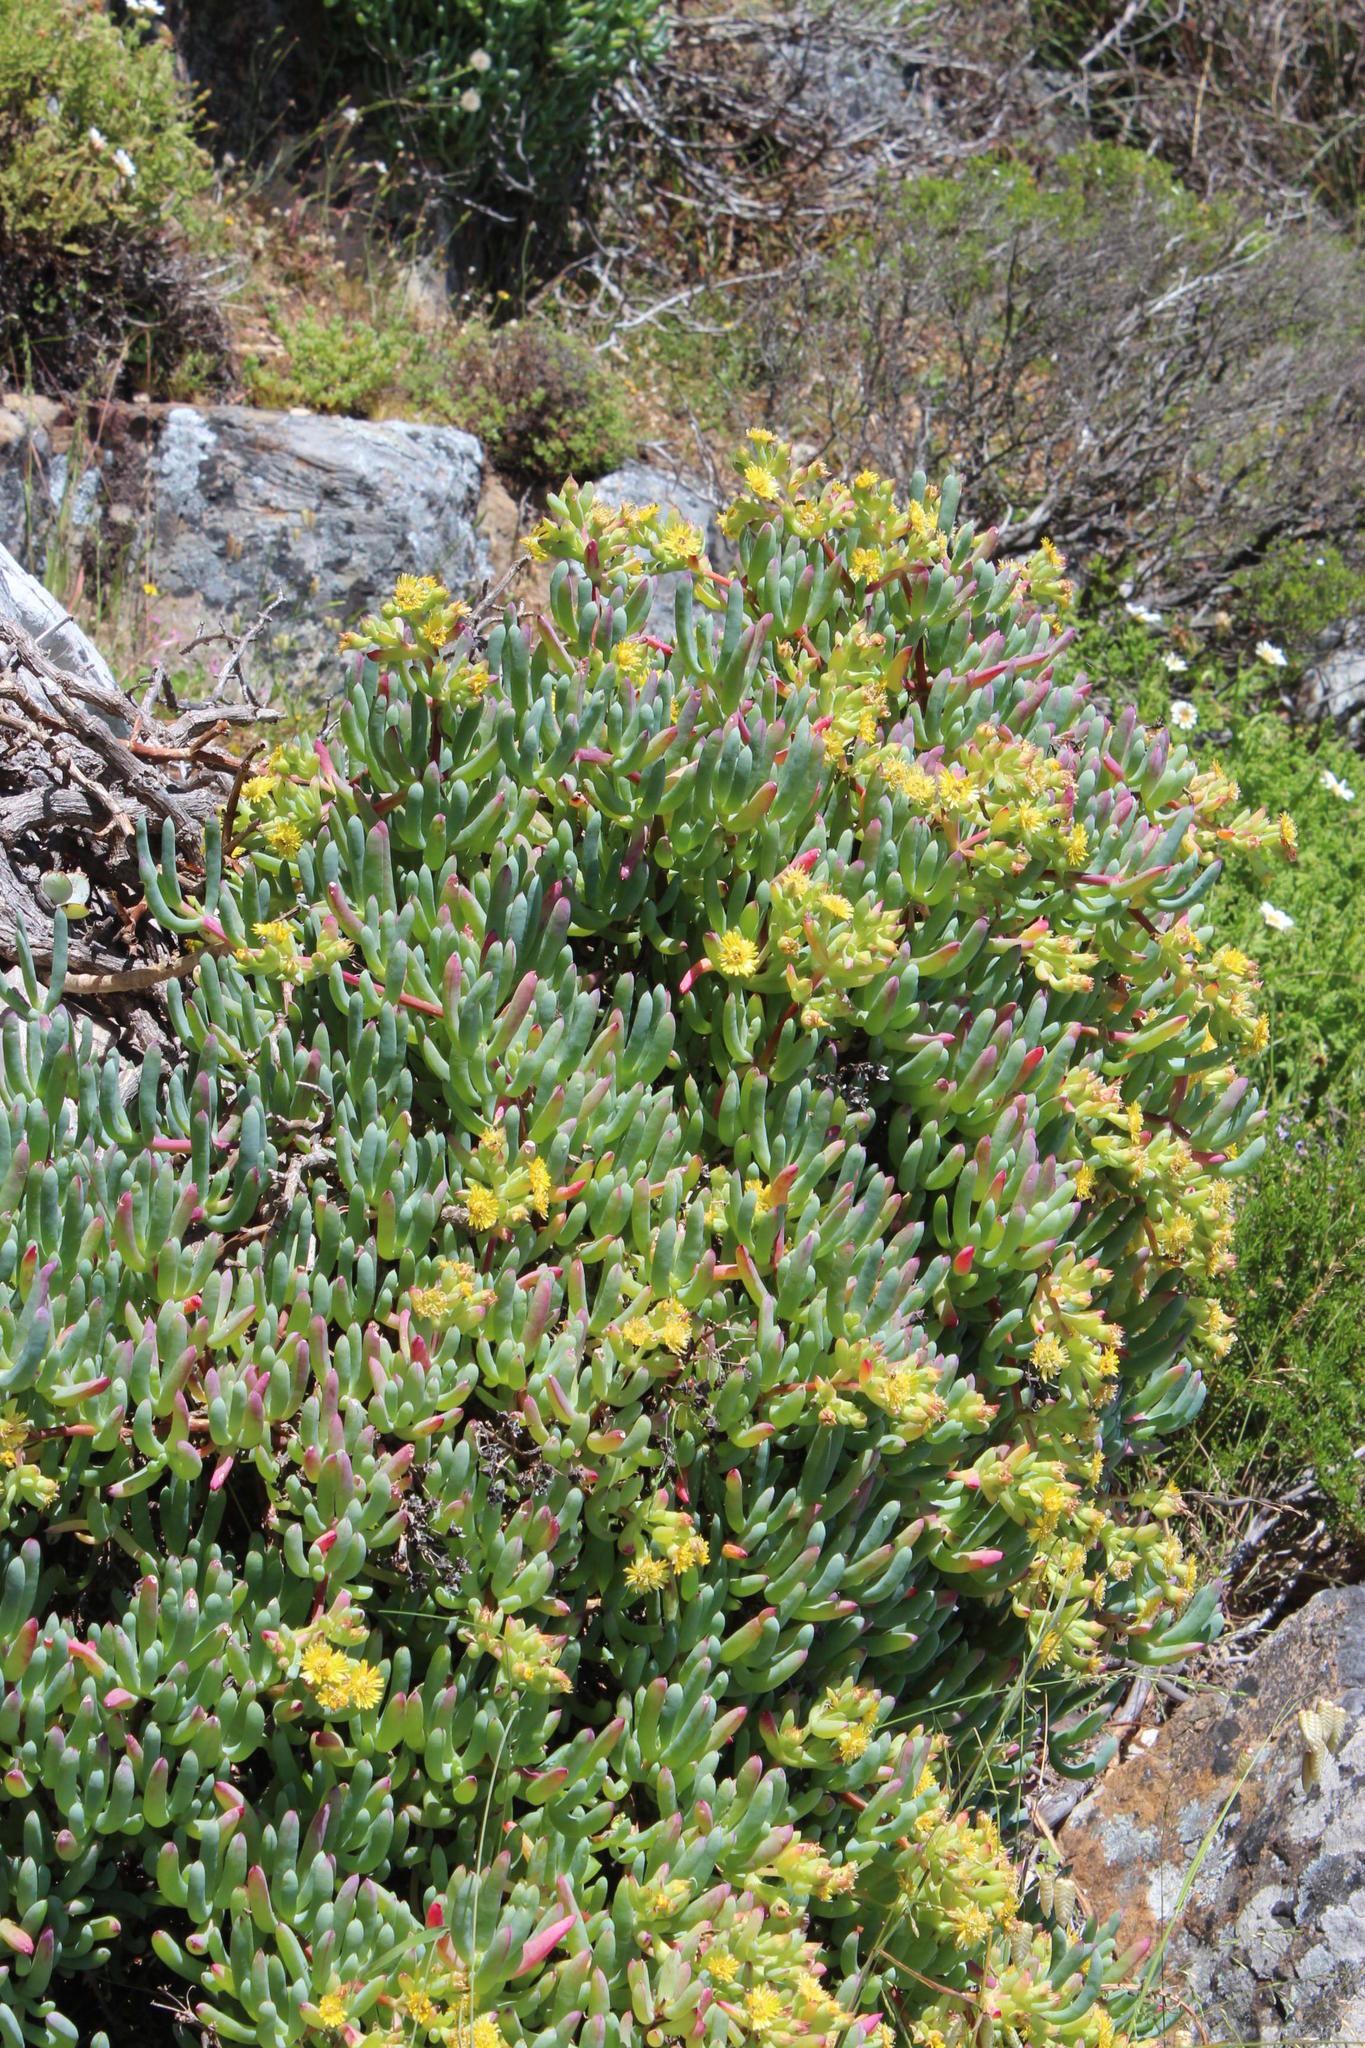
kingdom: Plantae
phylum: Tracheophyta
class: Magnoliopsida
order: Caryophyllales
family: Aizoaceae
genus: Scopelogena
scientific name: Scopelogena verruculata
